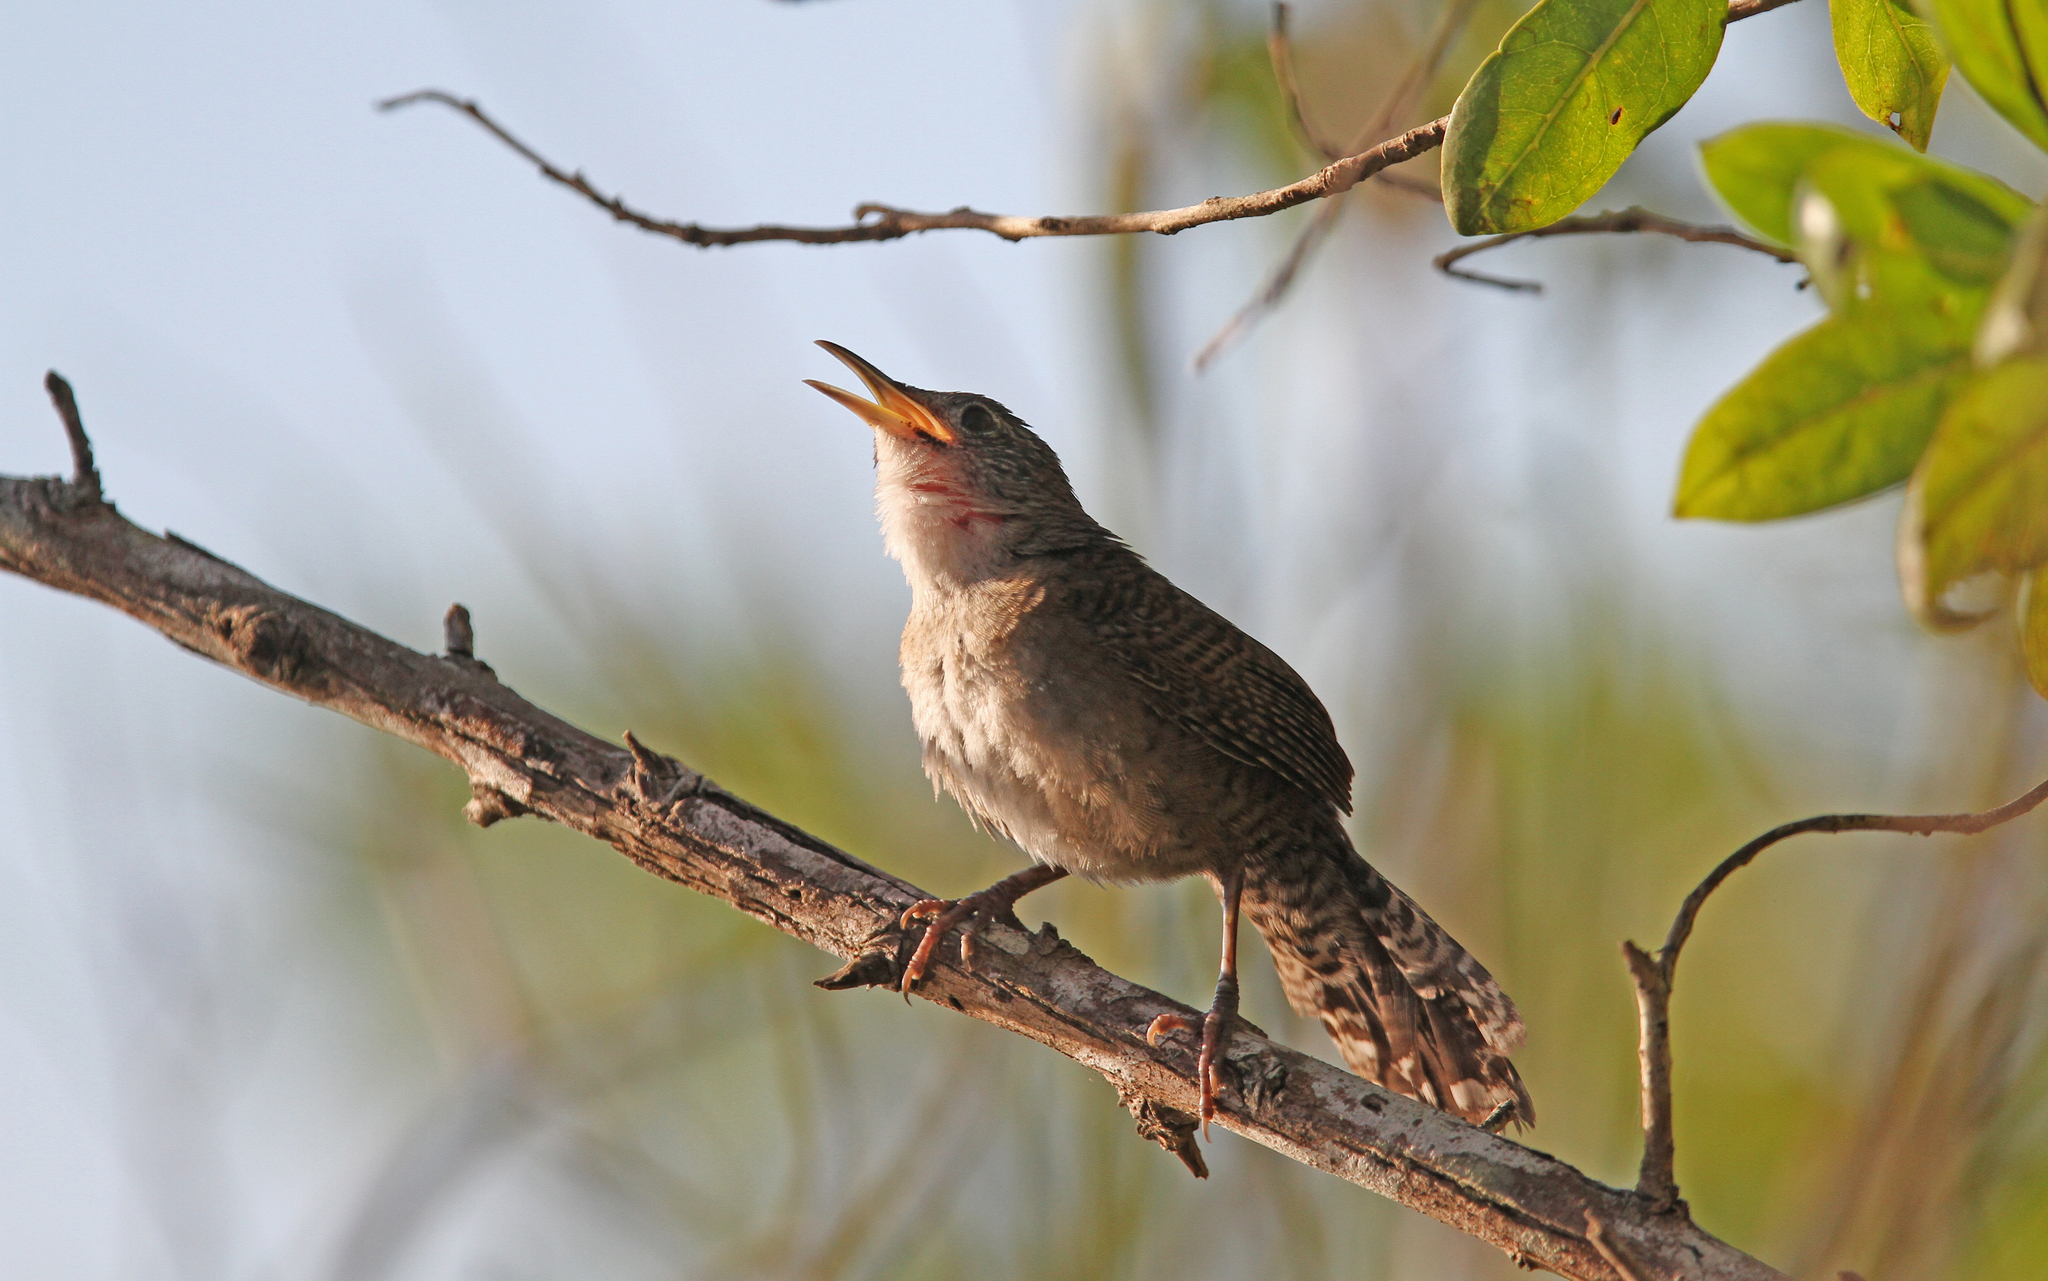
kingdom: Animalia
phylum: Chordata
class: Aves
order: Passeriformes
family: Troglodytidae
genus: Ferminia
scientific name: Ferminia cerverai
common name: Zapata wren
